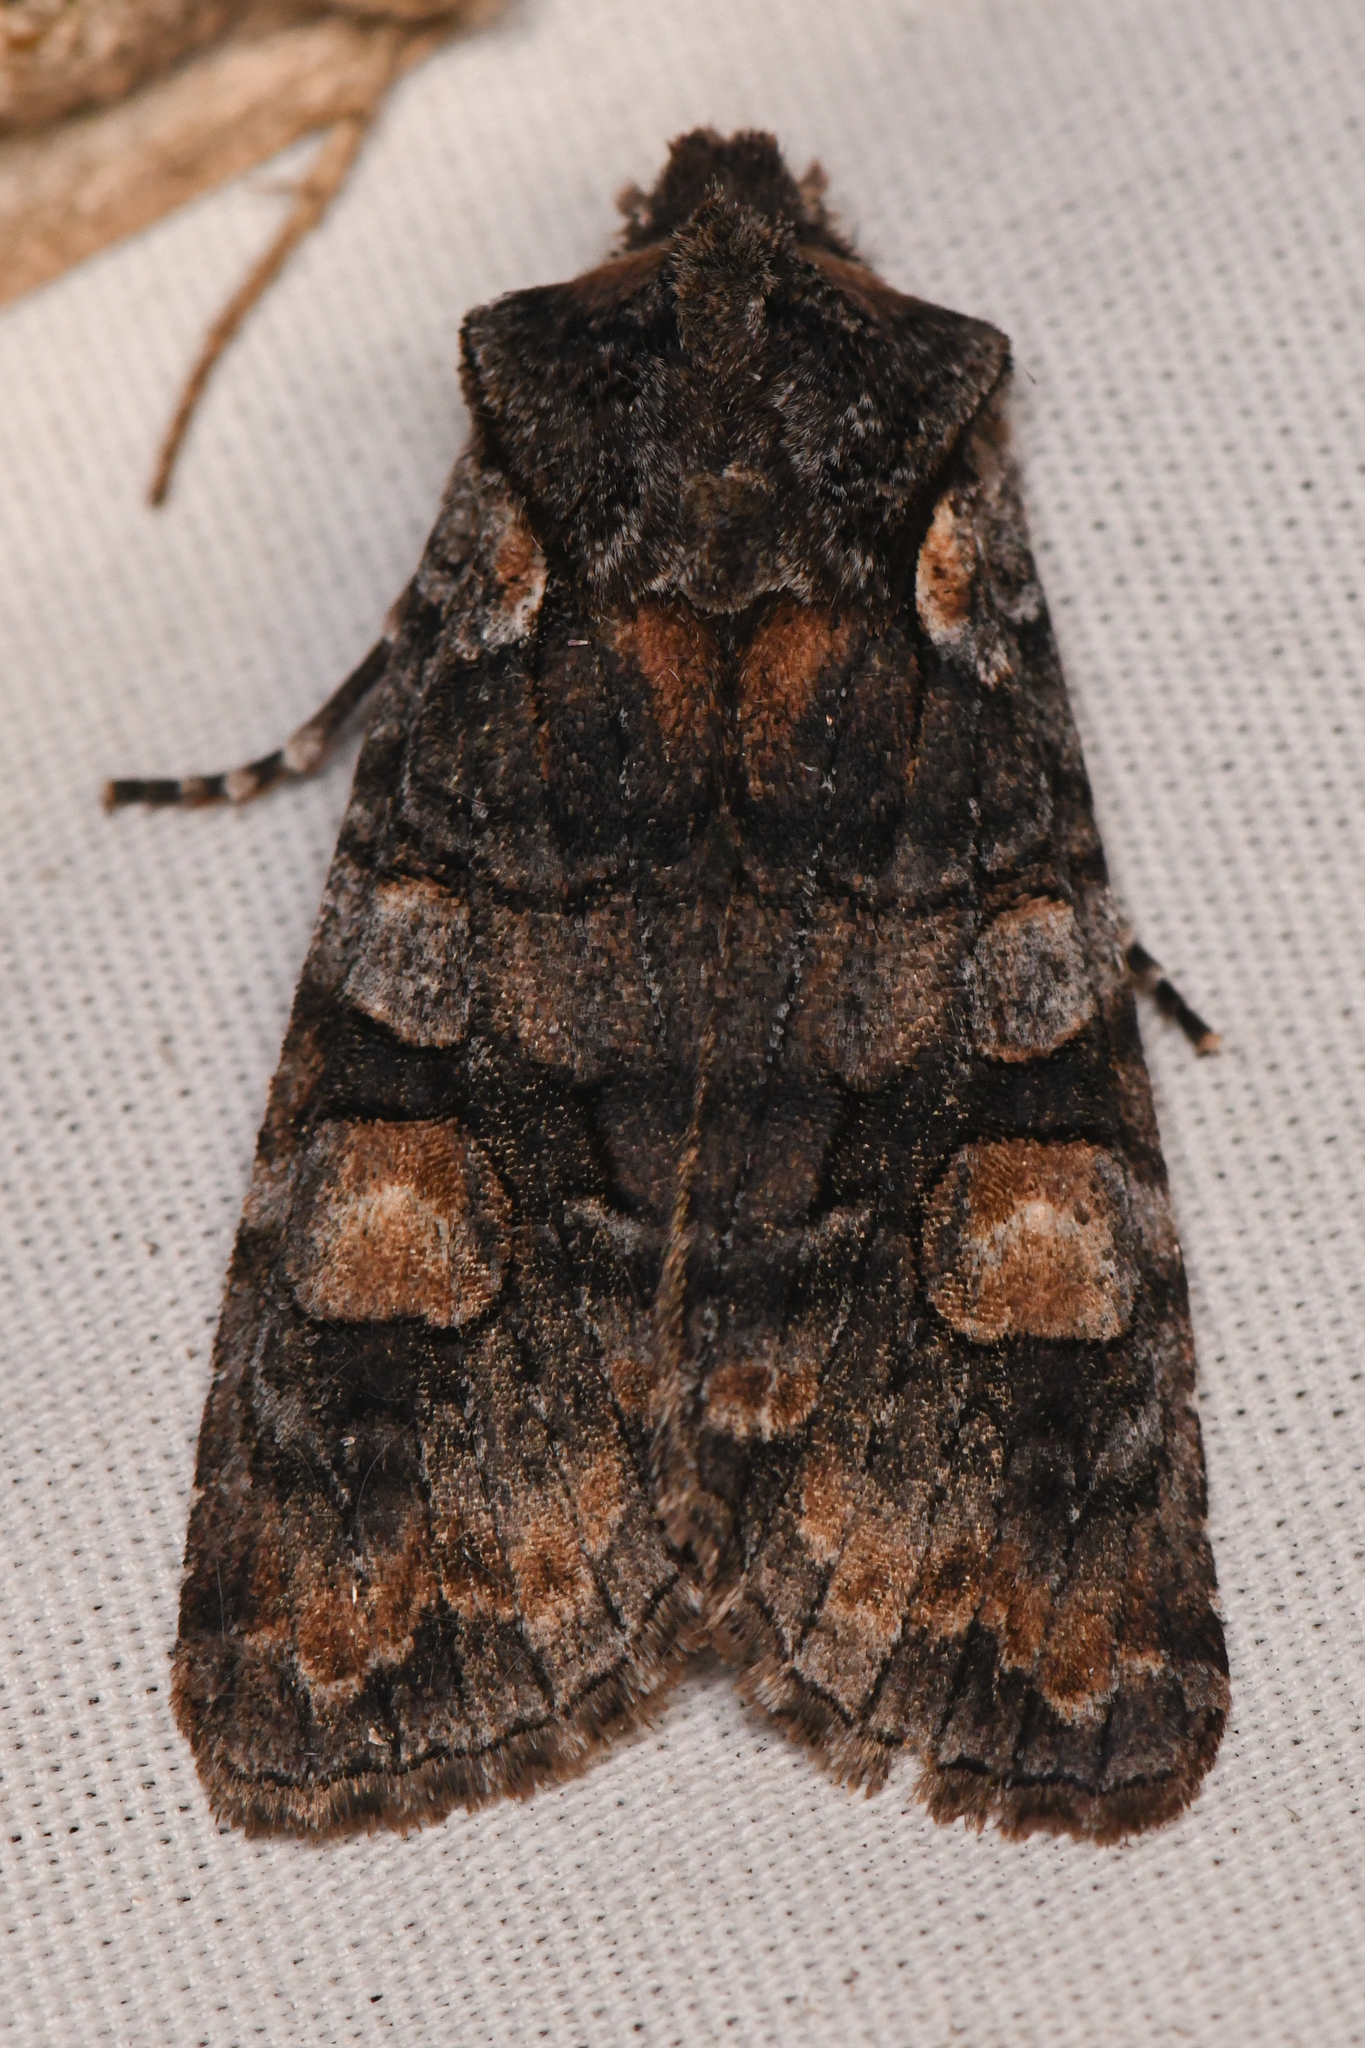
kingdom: Animalia
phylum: Arthropoda
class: Insecta
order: Lepidoptera
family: Noctuidae
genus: Lithophane
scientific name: Lithophane dilatocula
